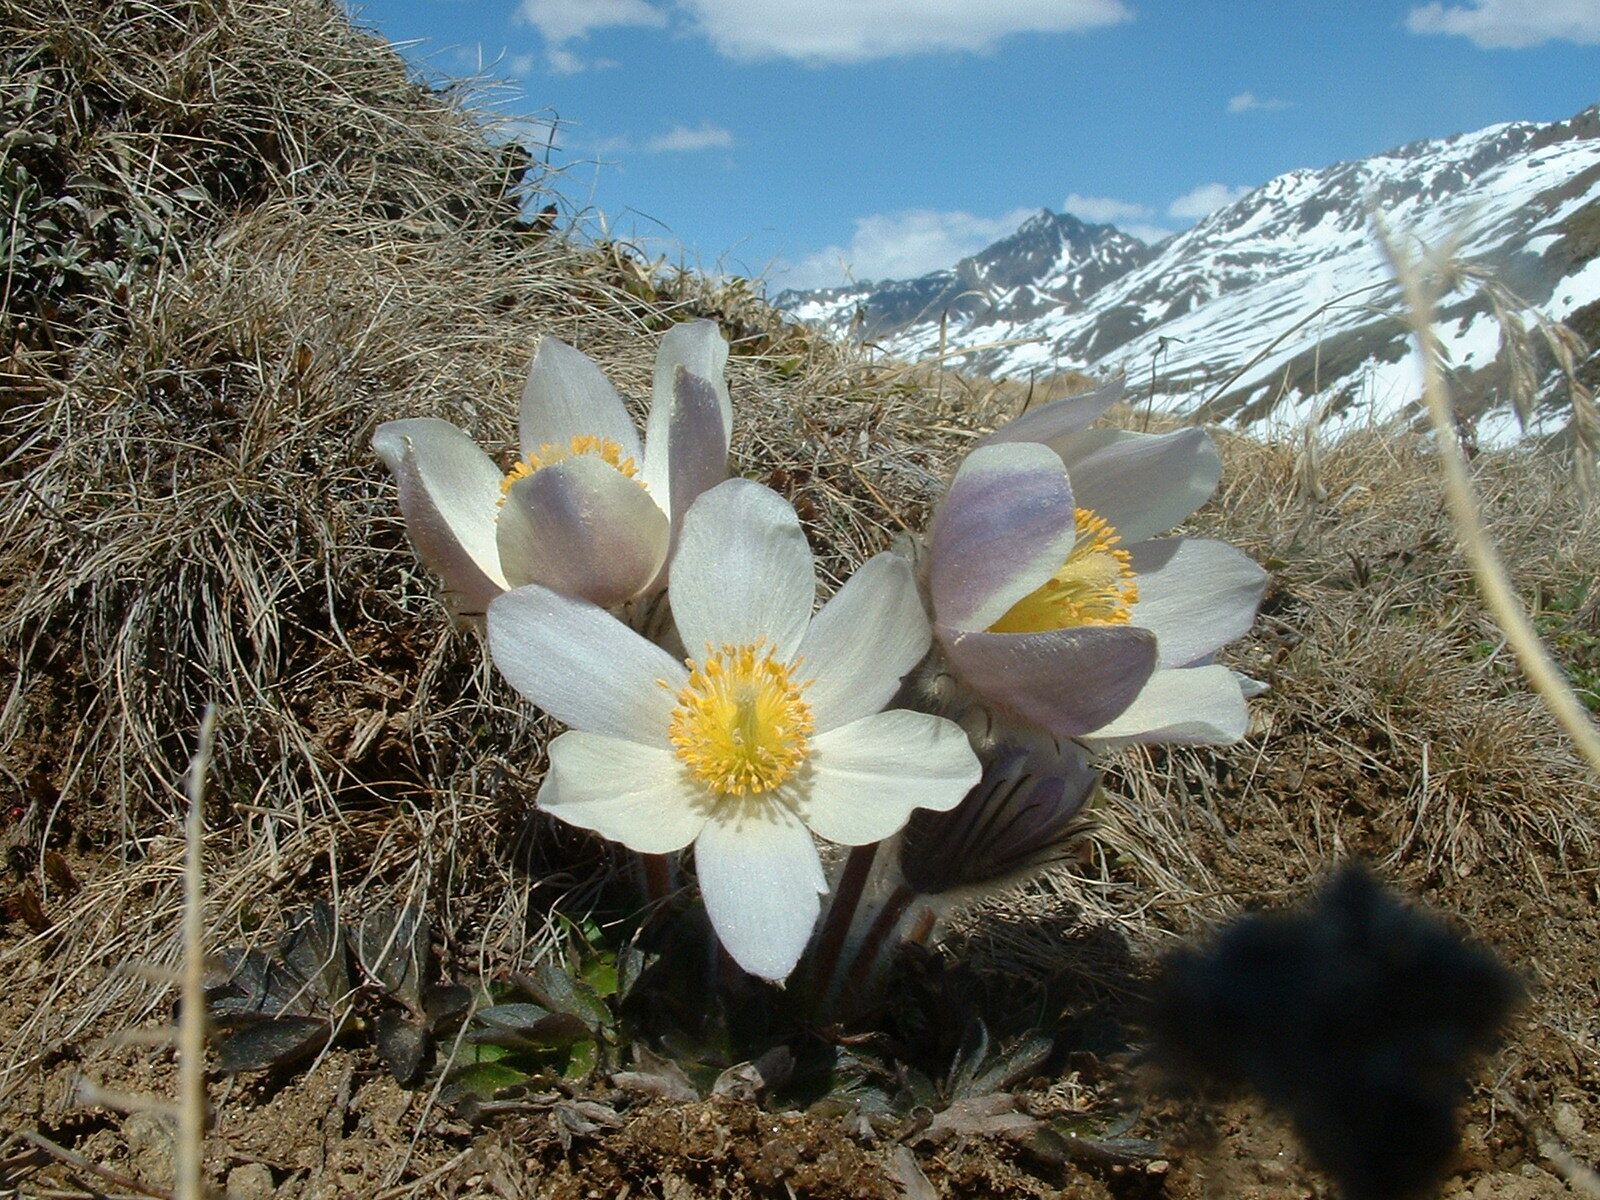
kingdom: Plantae
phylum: Tracheophyta
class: Magnoliopsida
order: Ranunculales
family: Ranunculaceae
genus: Pulsatilla
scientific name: Pulsatilla vernalis
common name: Spring pasque flower
